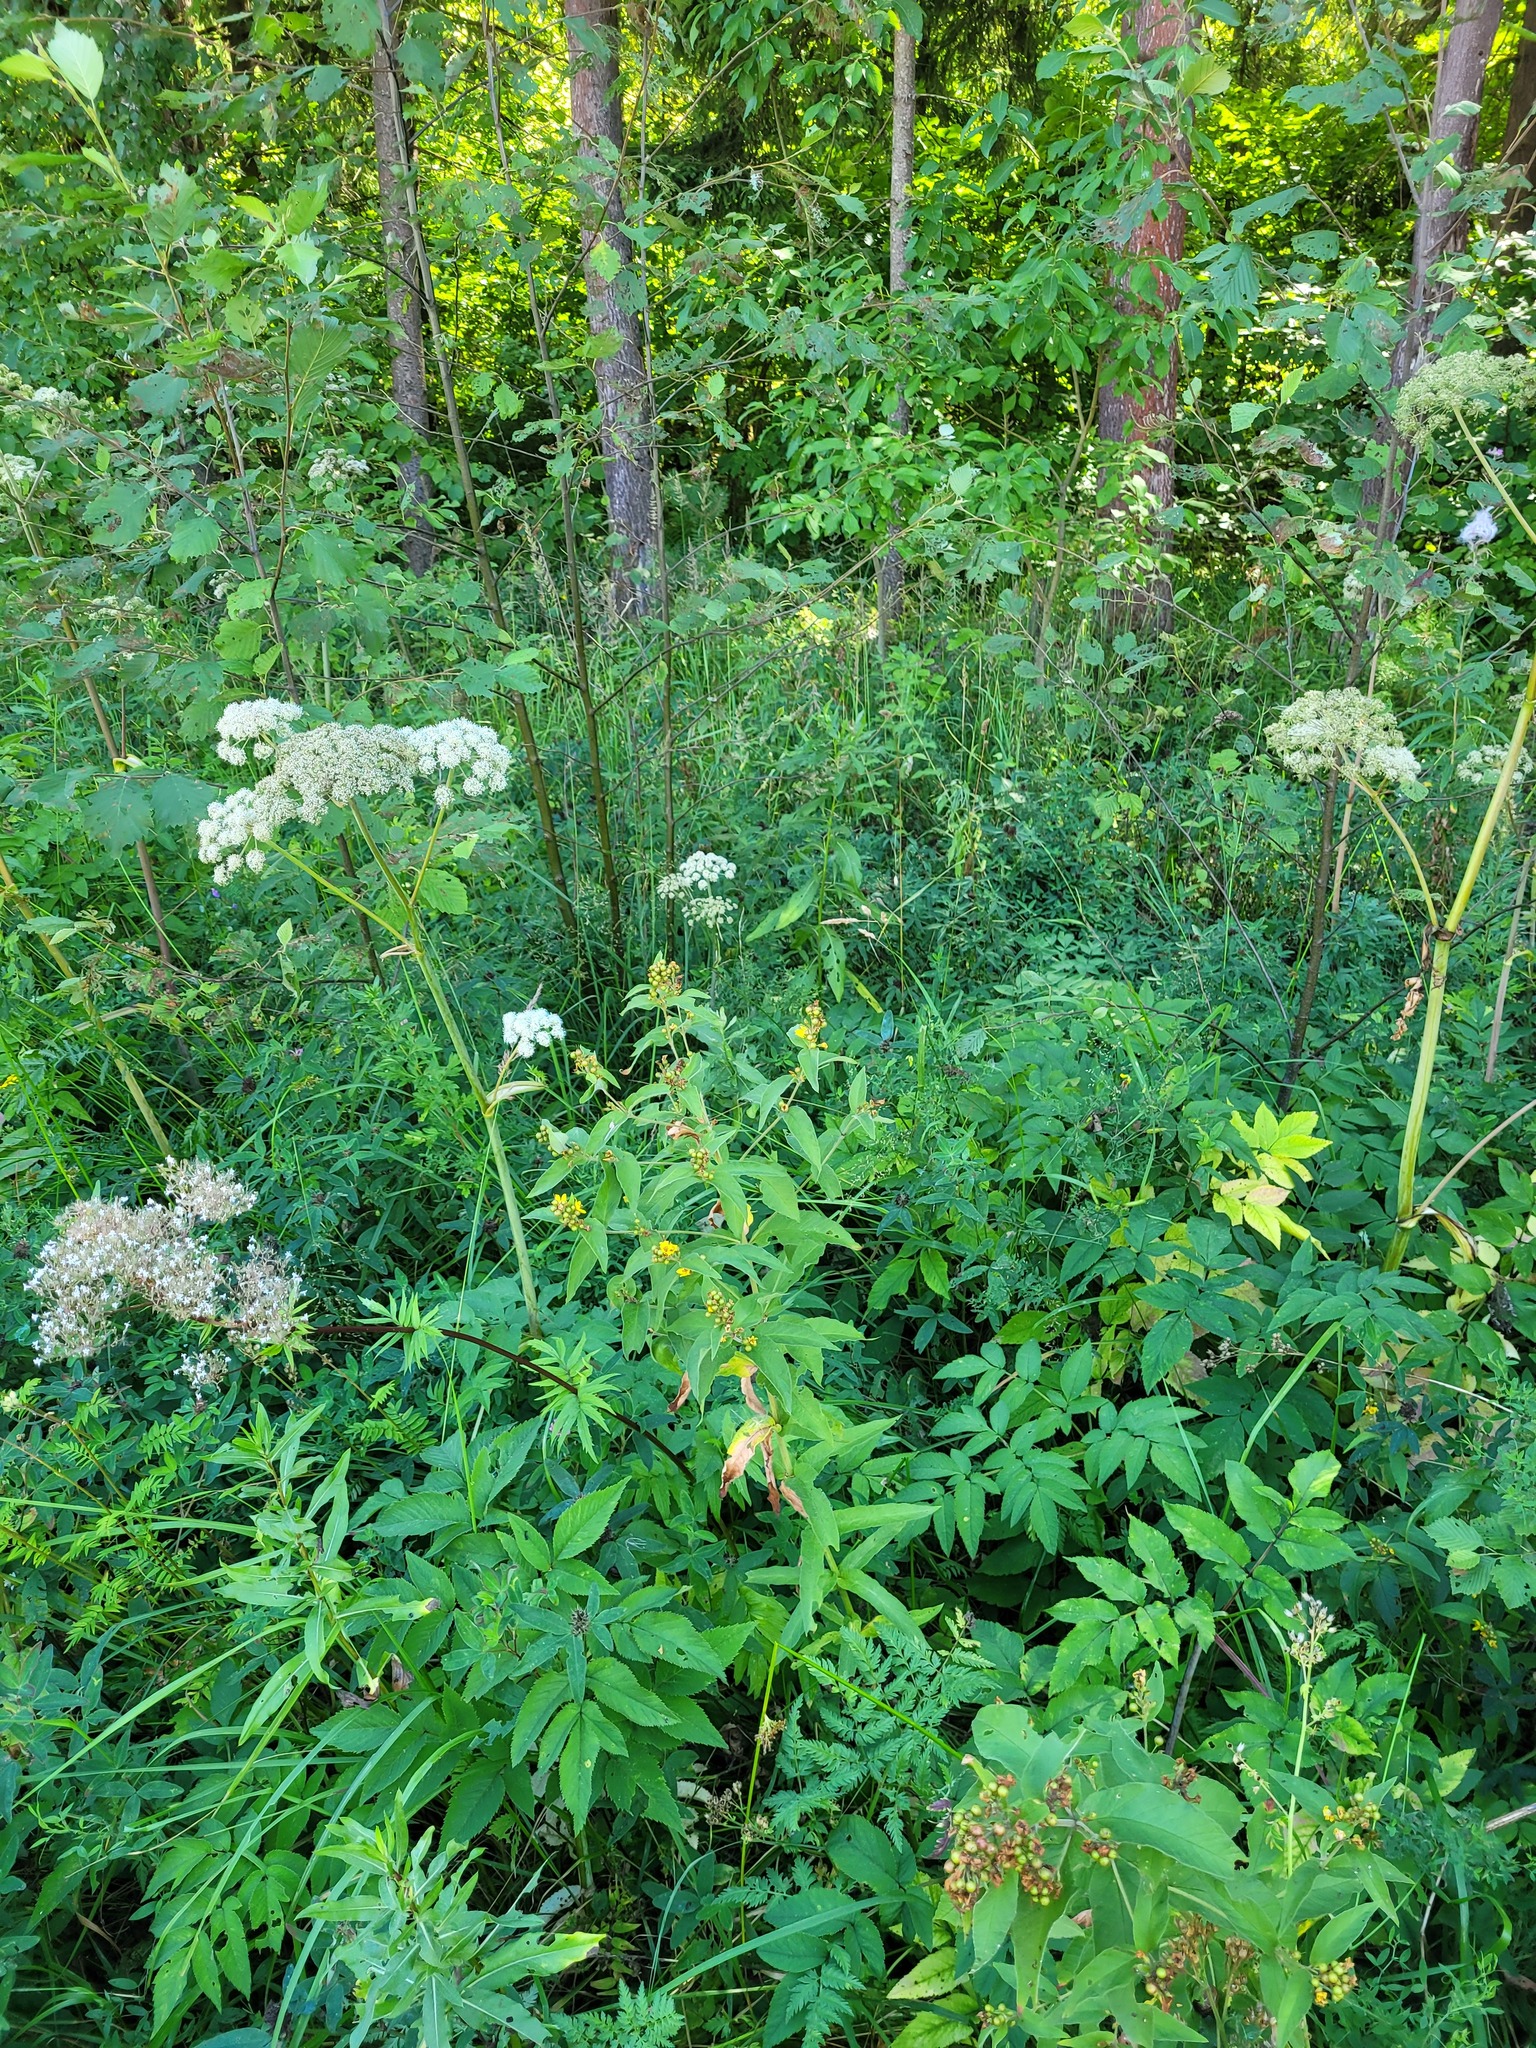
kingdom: Plantae
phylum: Tracheophyta
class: Magnoliopsida
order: Ericales
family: Primulaceae
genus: Lysimachia
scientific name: Lysimachia vulgaris
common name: Yellow loosestrife
